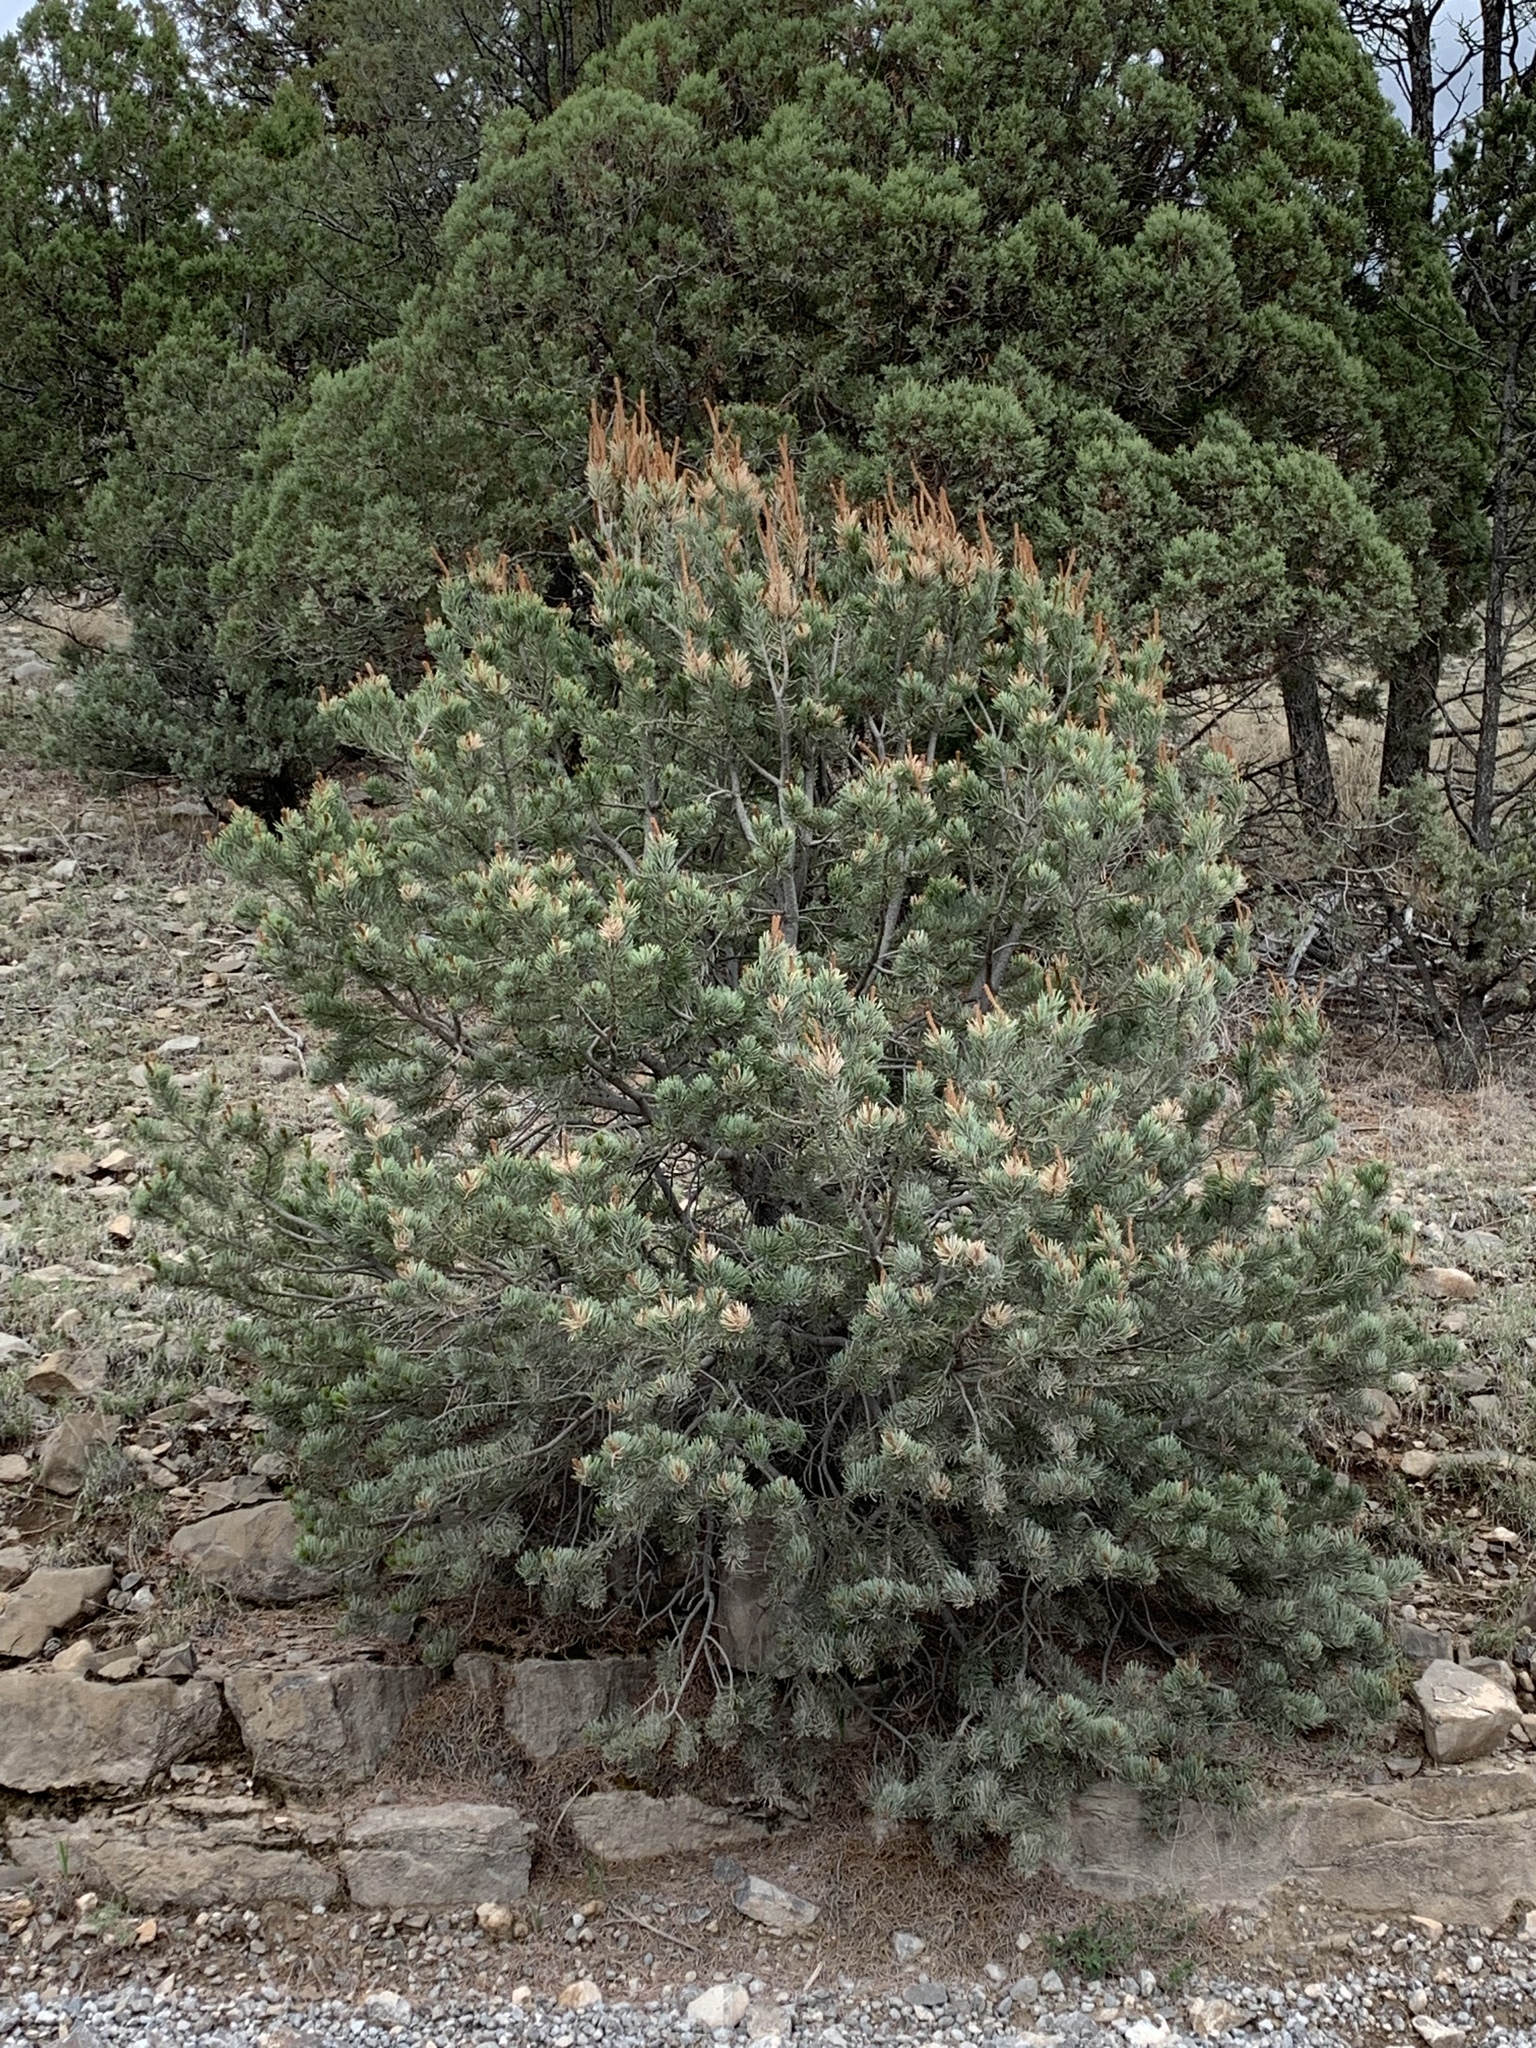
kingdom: Plantae
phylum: Tracheophyta
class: Pinopsida
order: Pinales
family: Pinaceae
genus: Pinus
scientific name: Pinus edulis
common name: Colorado pinyon
